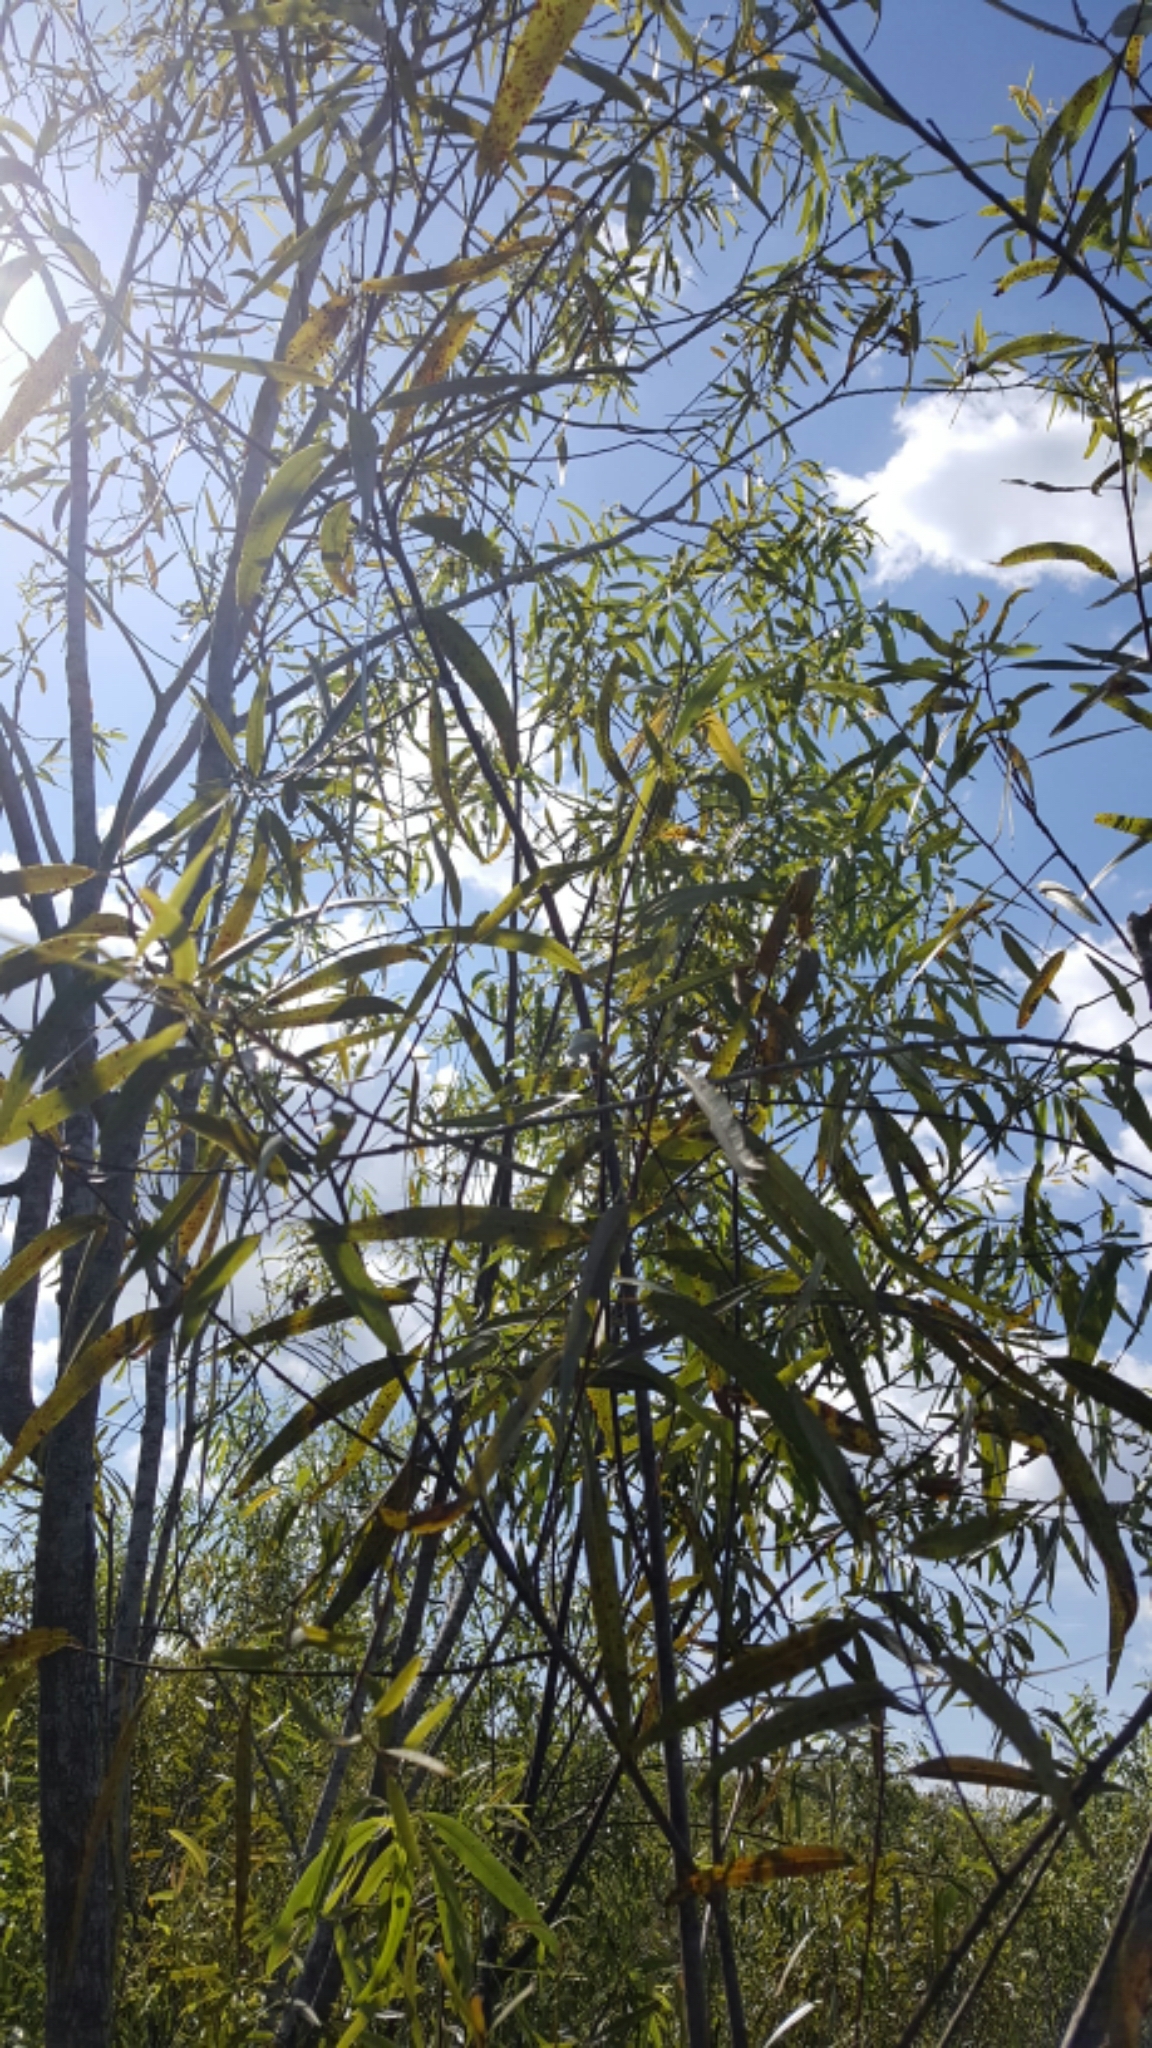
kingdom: Plantae
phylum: Tracheophyta
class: Magnoliopsida
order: Malpighiales
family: Salicaceae
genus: Salix
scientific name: Salix caroliniana
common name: Carolina willow
